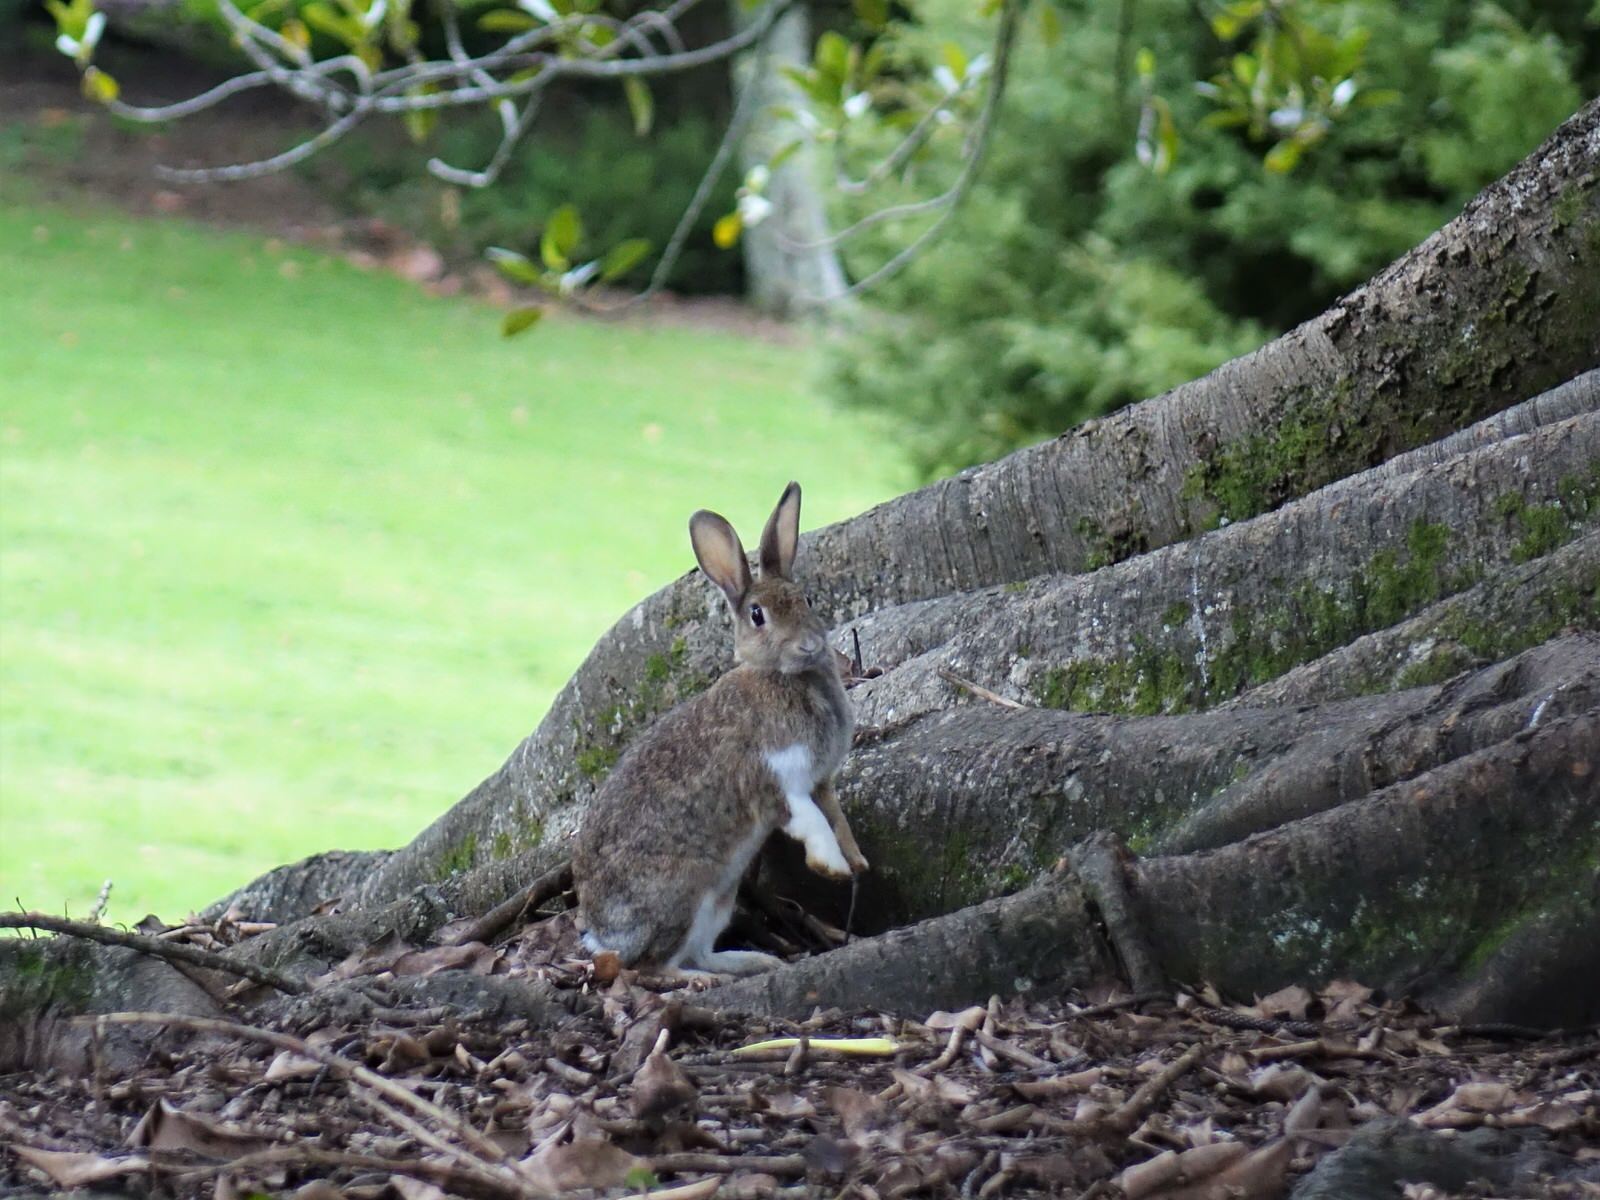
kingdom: Animalia
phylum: Chordata
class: Mammalia
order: Lagomorpha
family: Leporidae
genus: Oryctolagus
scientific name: Oryctolagus cuniculus
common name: European rabbit
